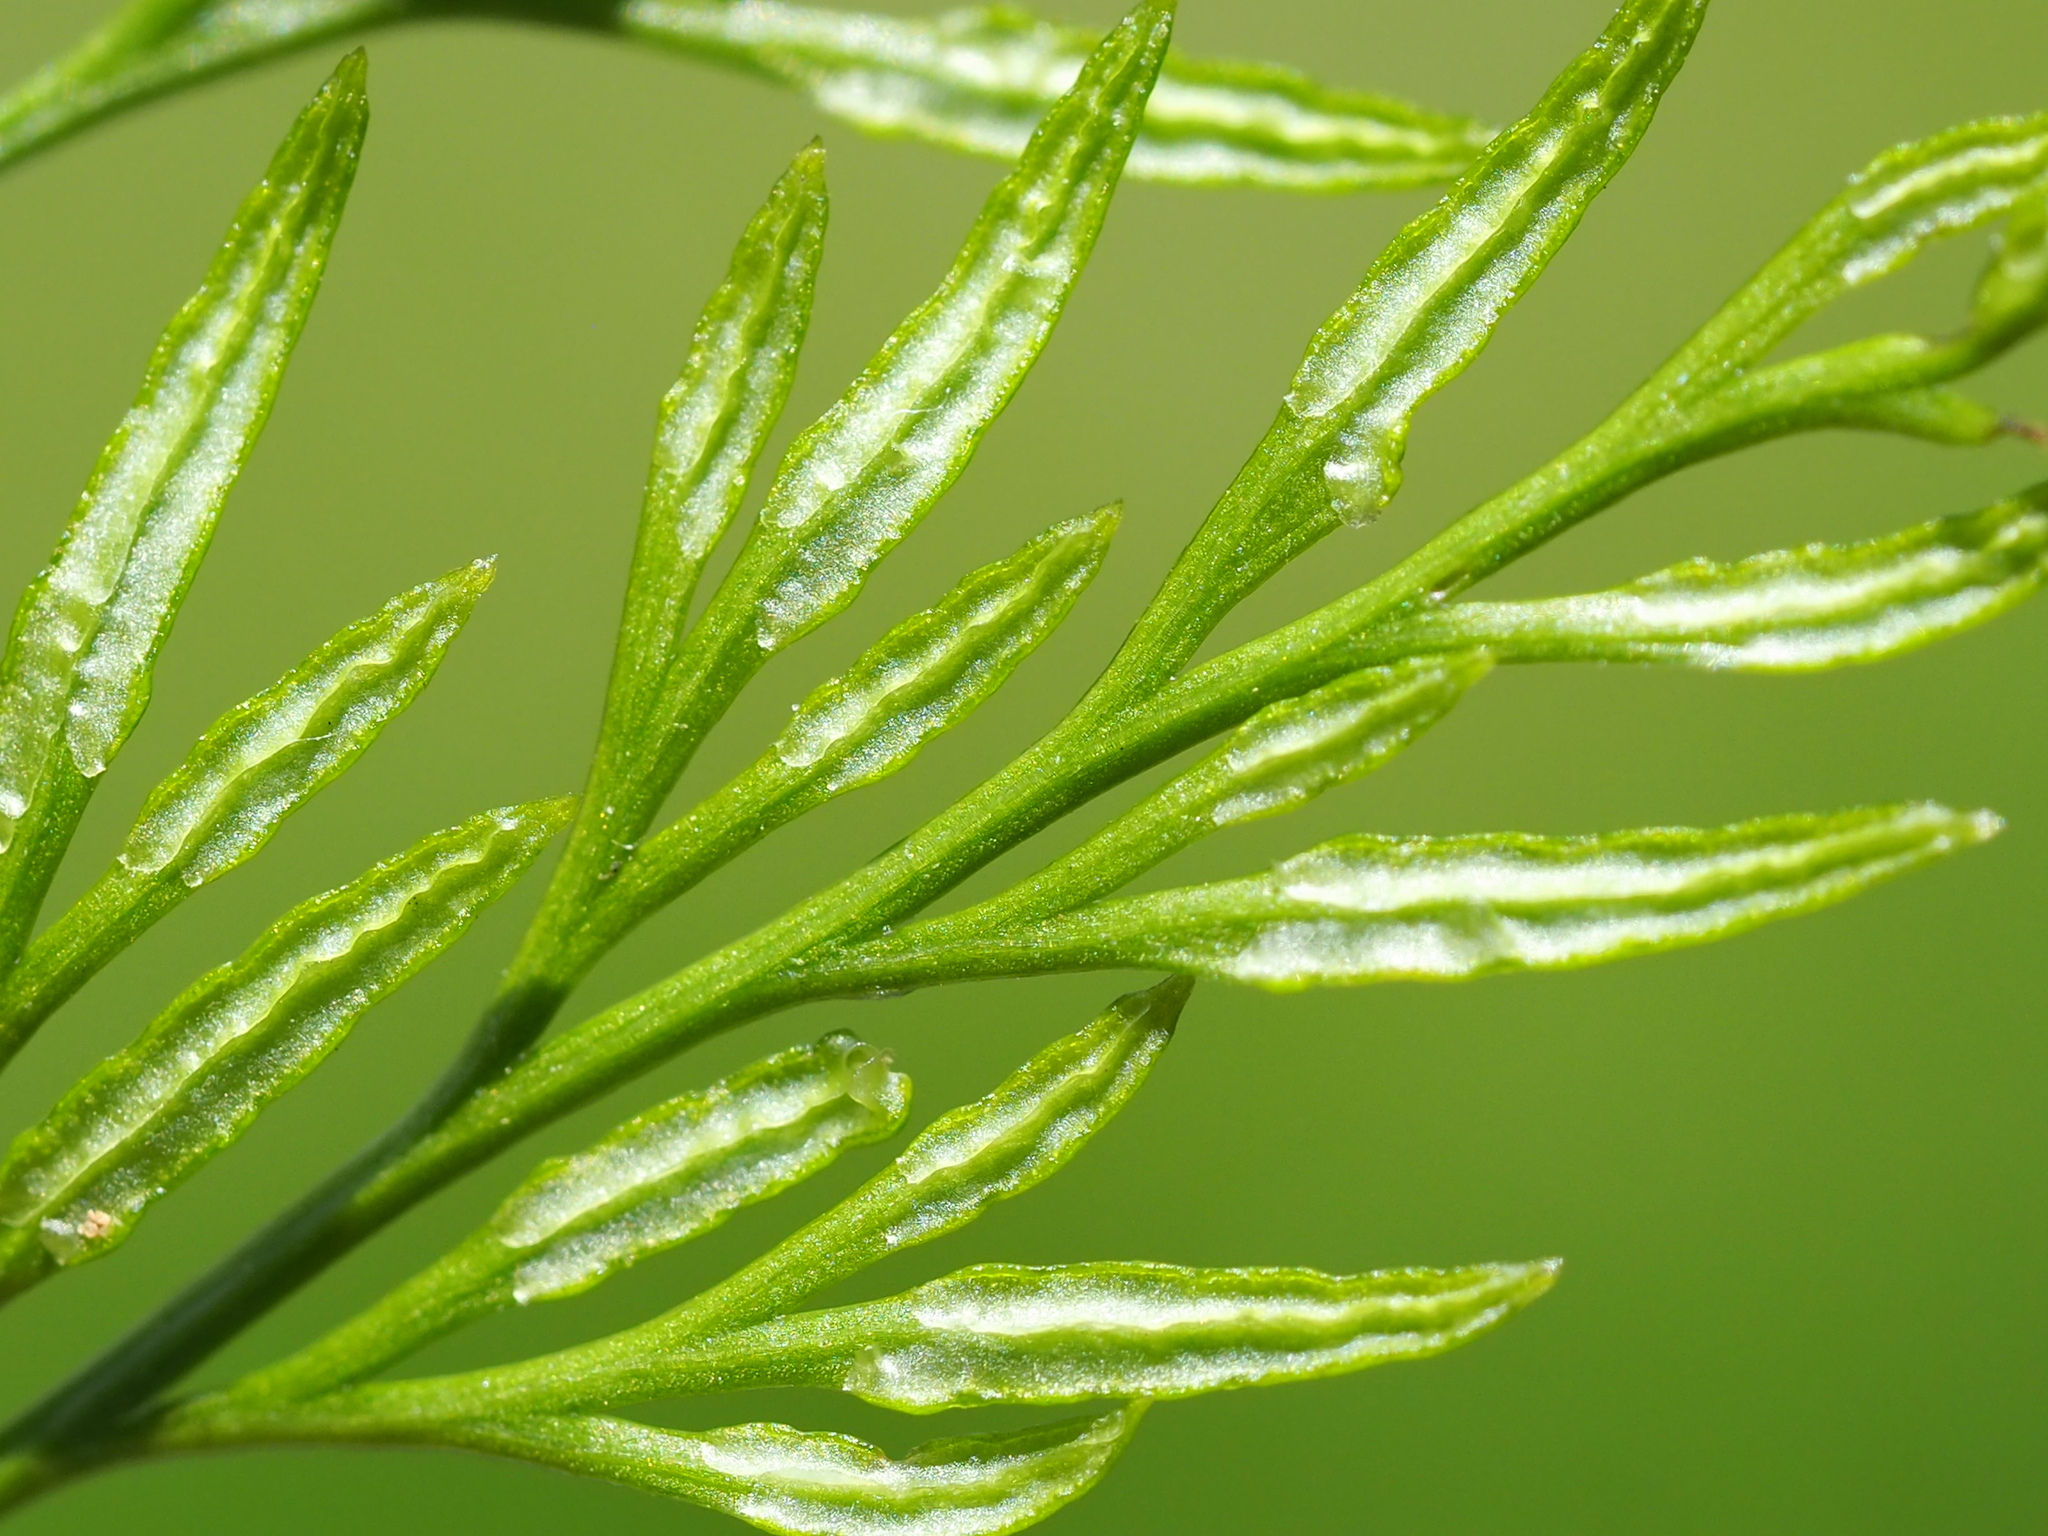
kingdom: Plantae
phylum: Tracheophyta
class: Polypodiopsida
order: Polypodiales
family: Pteridaceae
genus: Onychium
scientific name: Onychium japonicum
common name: Carrot fern
